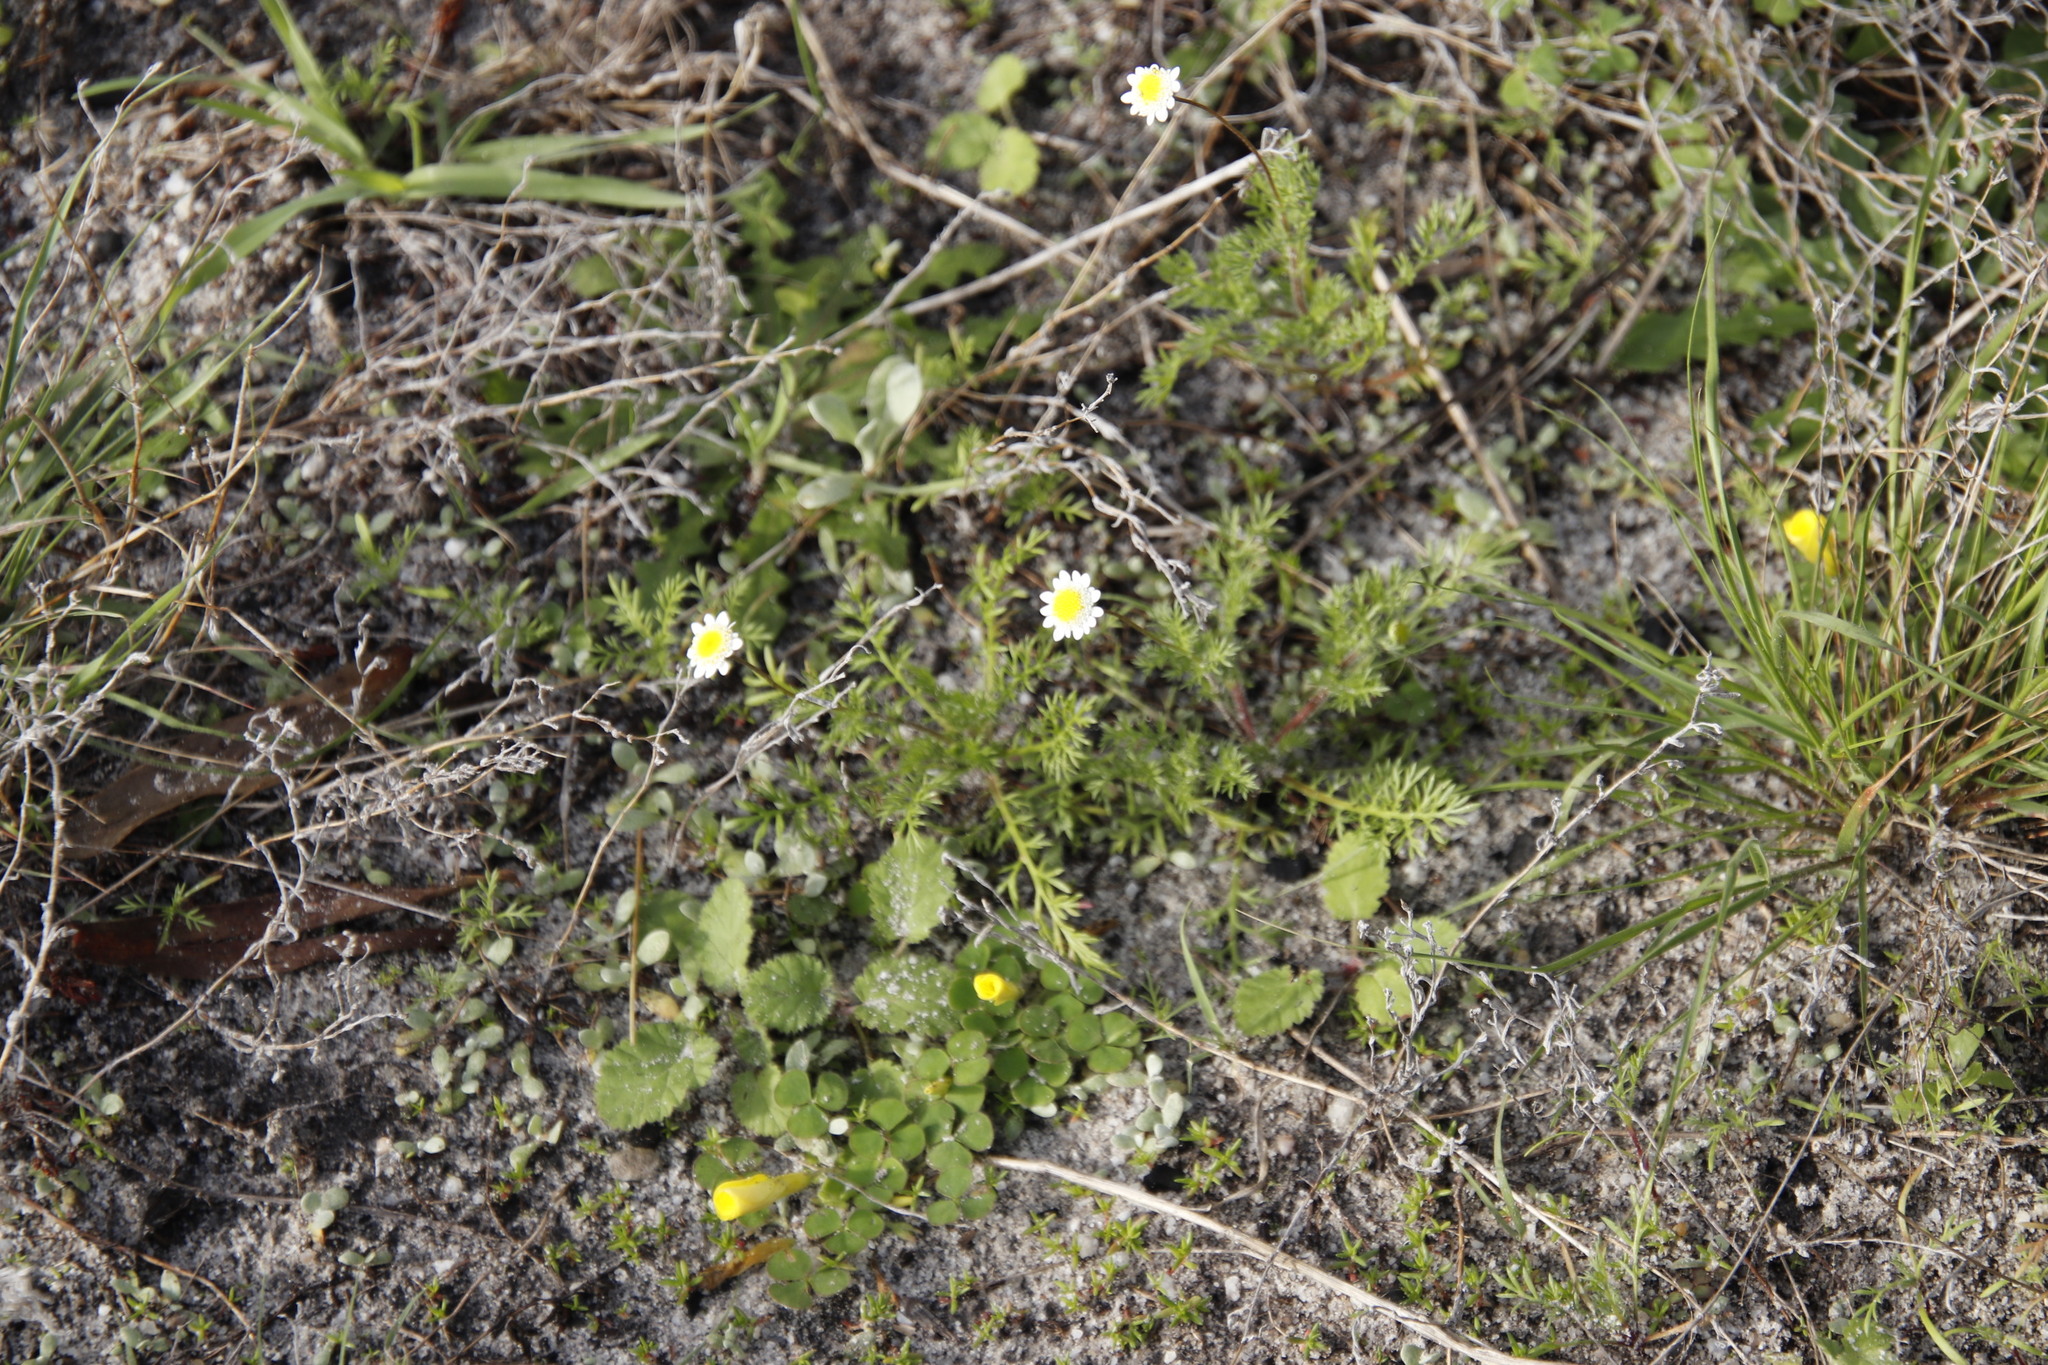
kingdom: Plantae
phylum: Tracheophyta
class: Magnoliopsida
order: Asterales
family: Asteraceae
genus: Cotula
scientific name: Cotula turbinata
